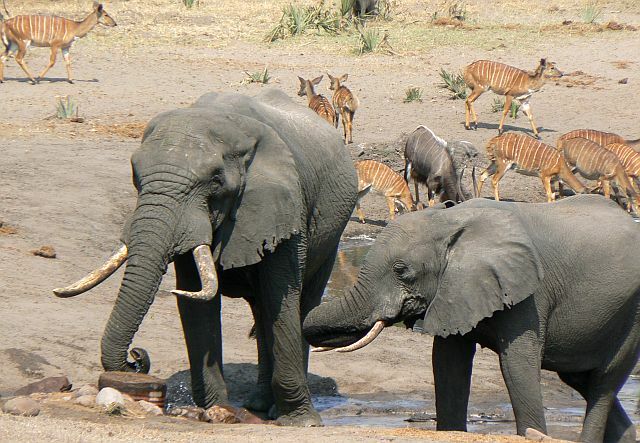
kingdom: Animalia
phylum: Chordata
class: Mammalia
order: Proboscidea
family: Elephantidae
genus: Loxodonta
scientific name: Loxodonta africana
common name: African elephant
